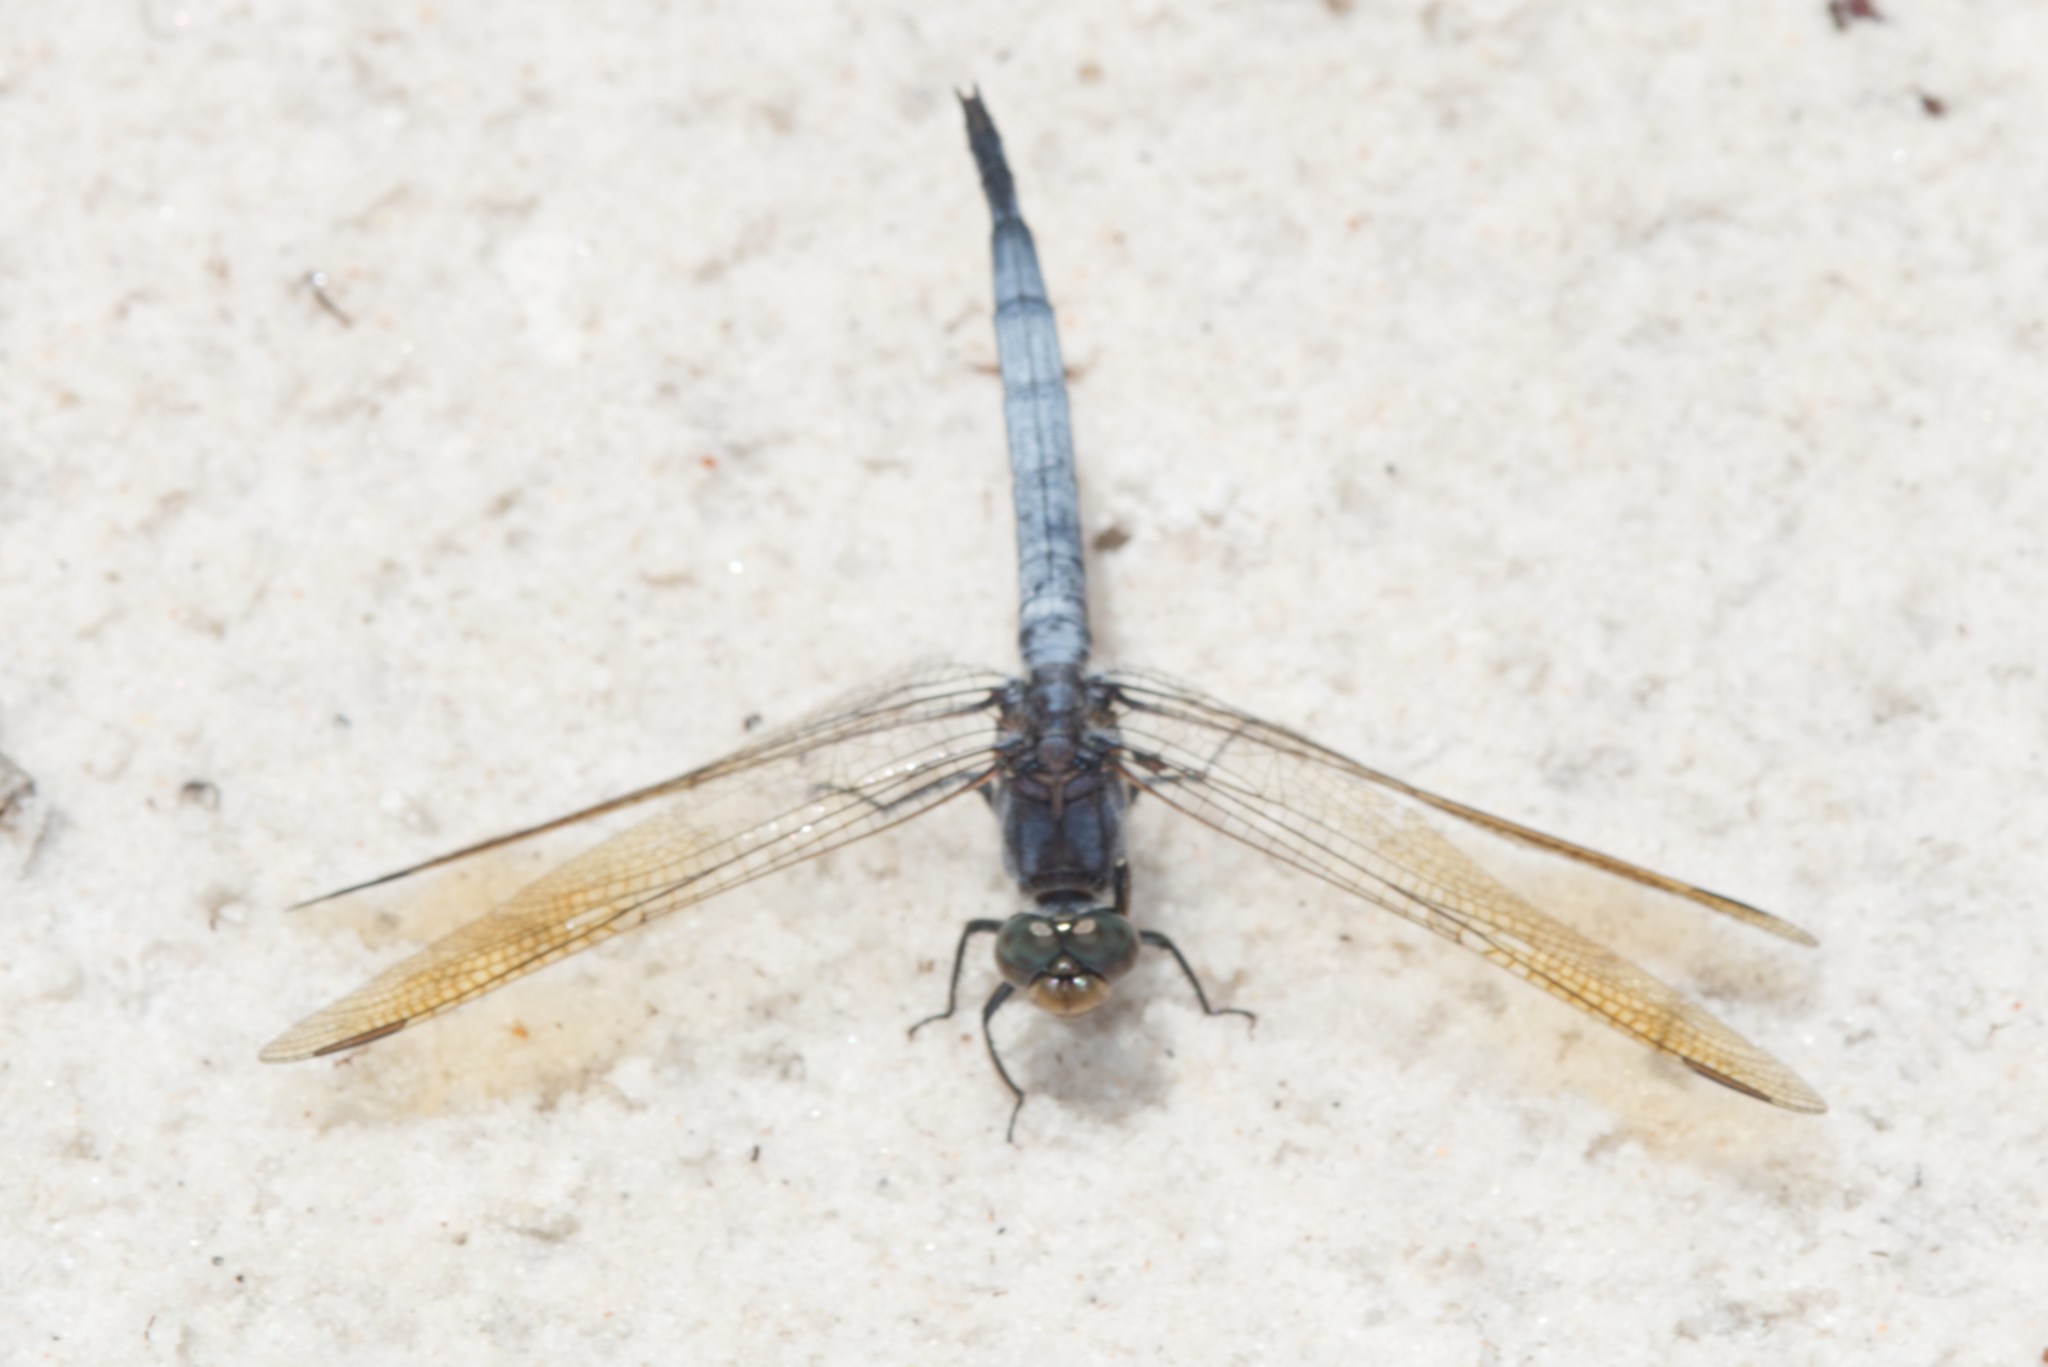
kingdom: Animalia
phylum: Arthropoda
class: Insecta
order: Odonata
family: Libellulidae
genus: Orthetrum
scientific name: Orthetrum caledonicum
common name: Blue skimmer
